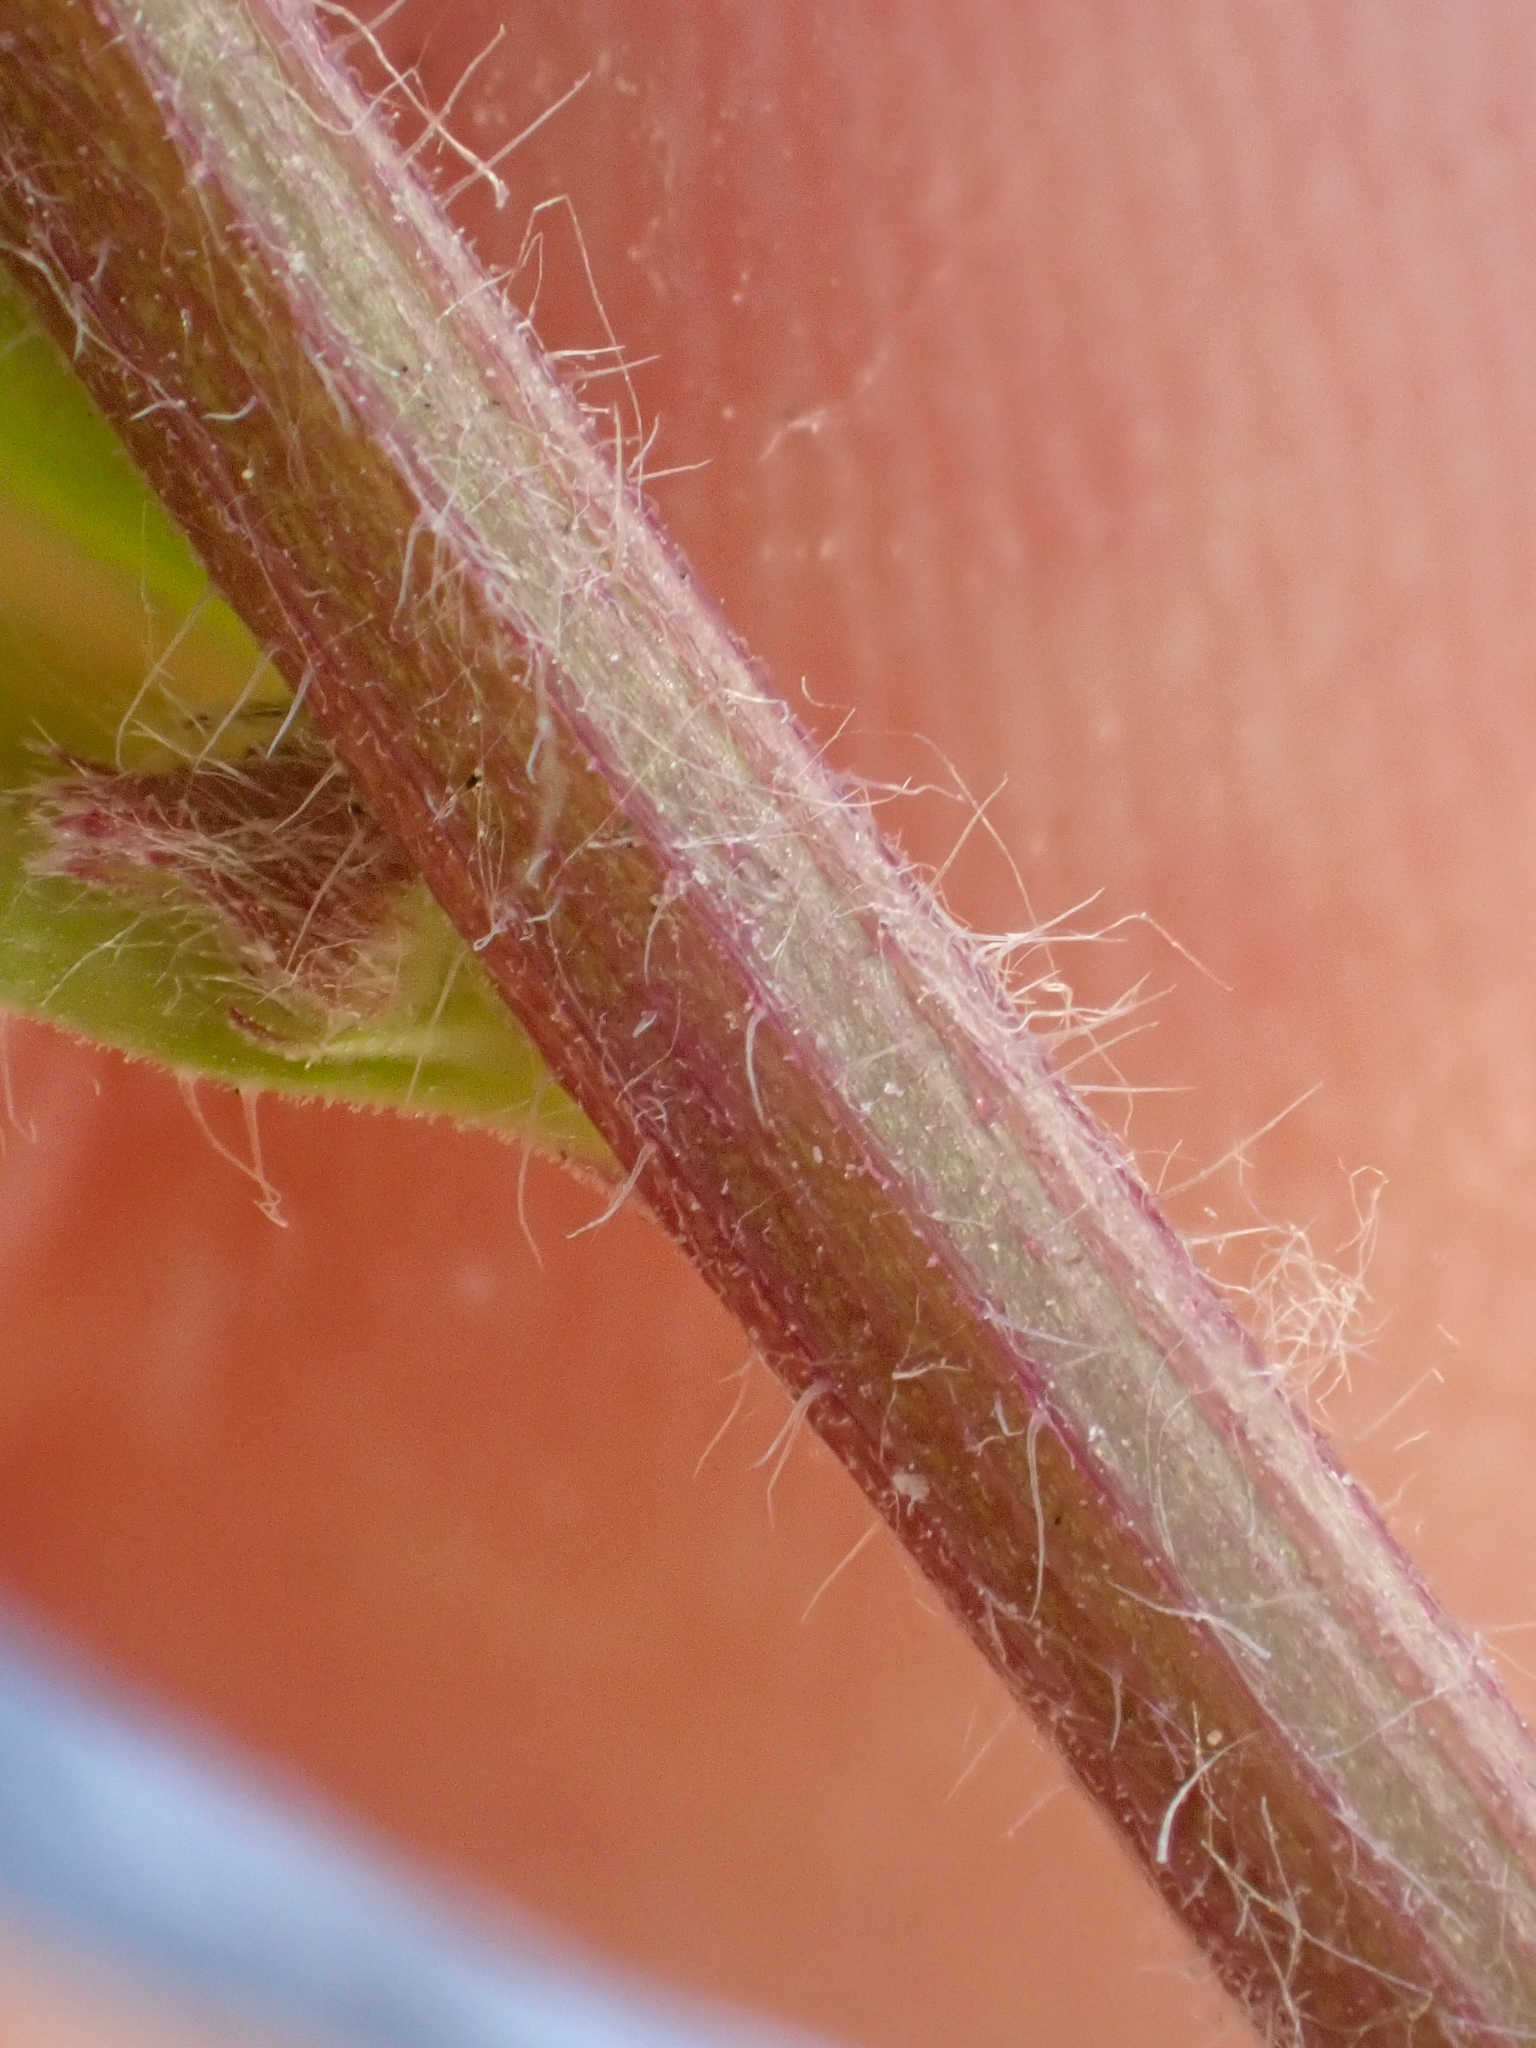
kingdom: Plantae
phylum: Tracheophyta
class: Magnoliopsida
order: Asterales
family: Asteraceae
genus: Erigeron
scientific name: Erigeron acris
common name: Blue fleabane
